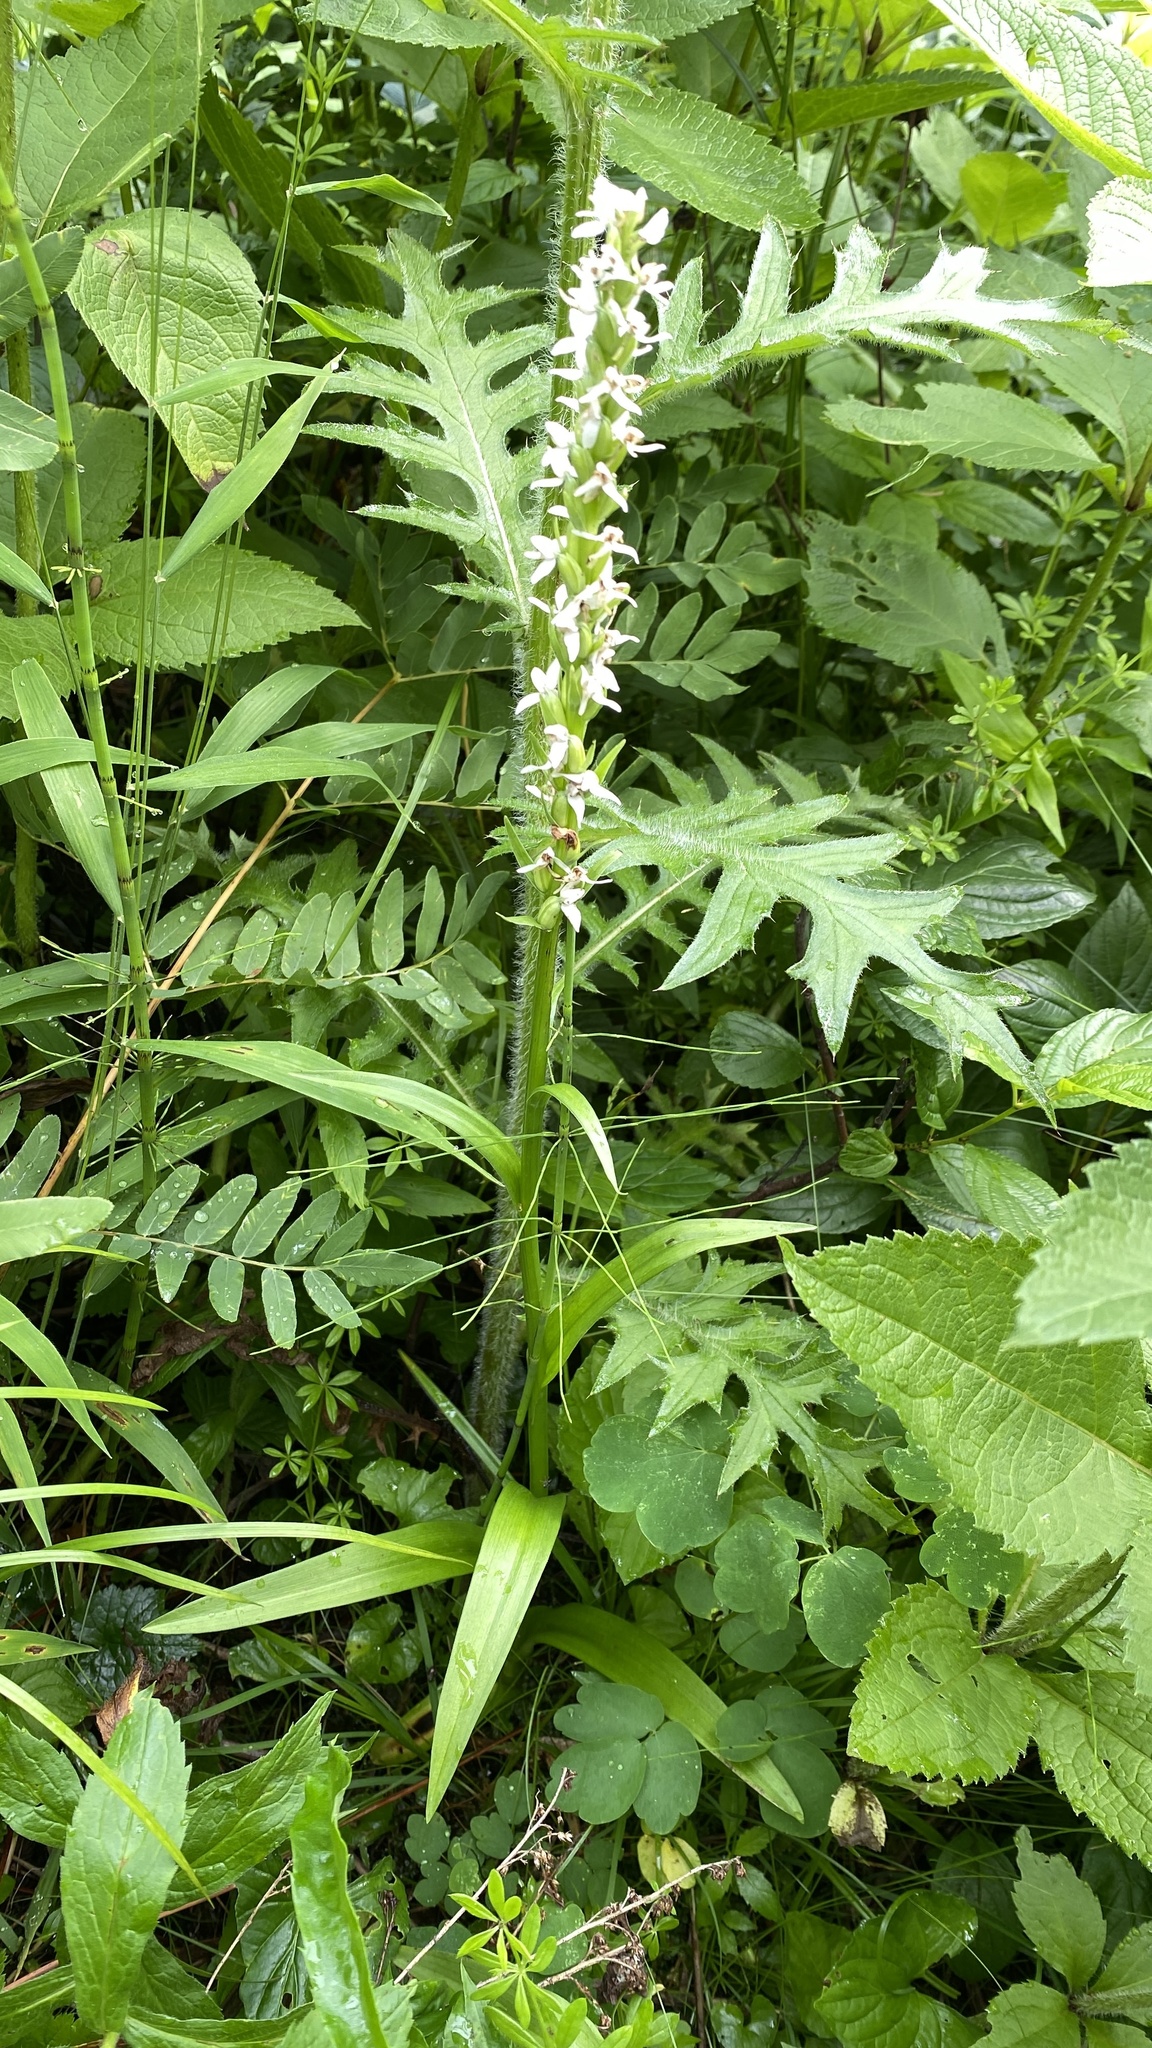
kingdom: Plantae
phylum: Tracheophyta
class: Liliopsida
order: Asparagales
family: Orchidaceae
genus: Platanthera
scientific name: Platanthera dilatata
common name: Bog candles
